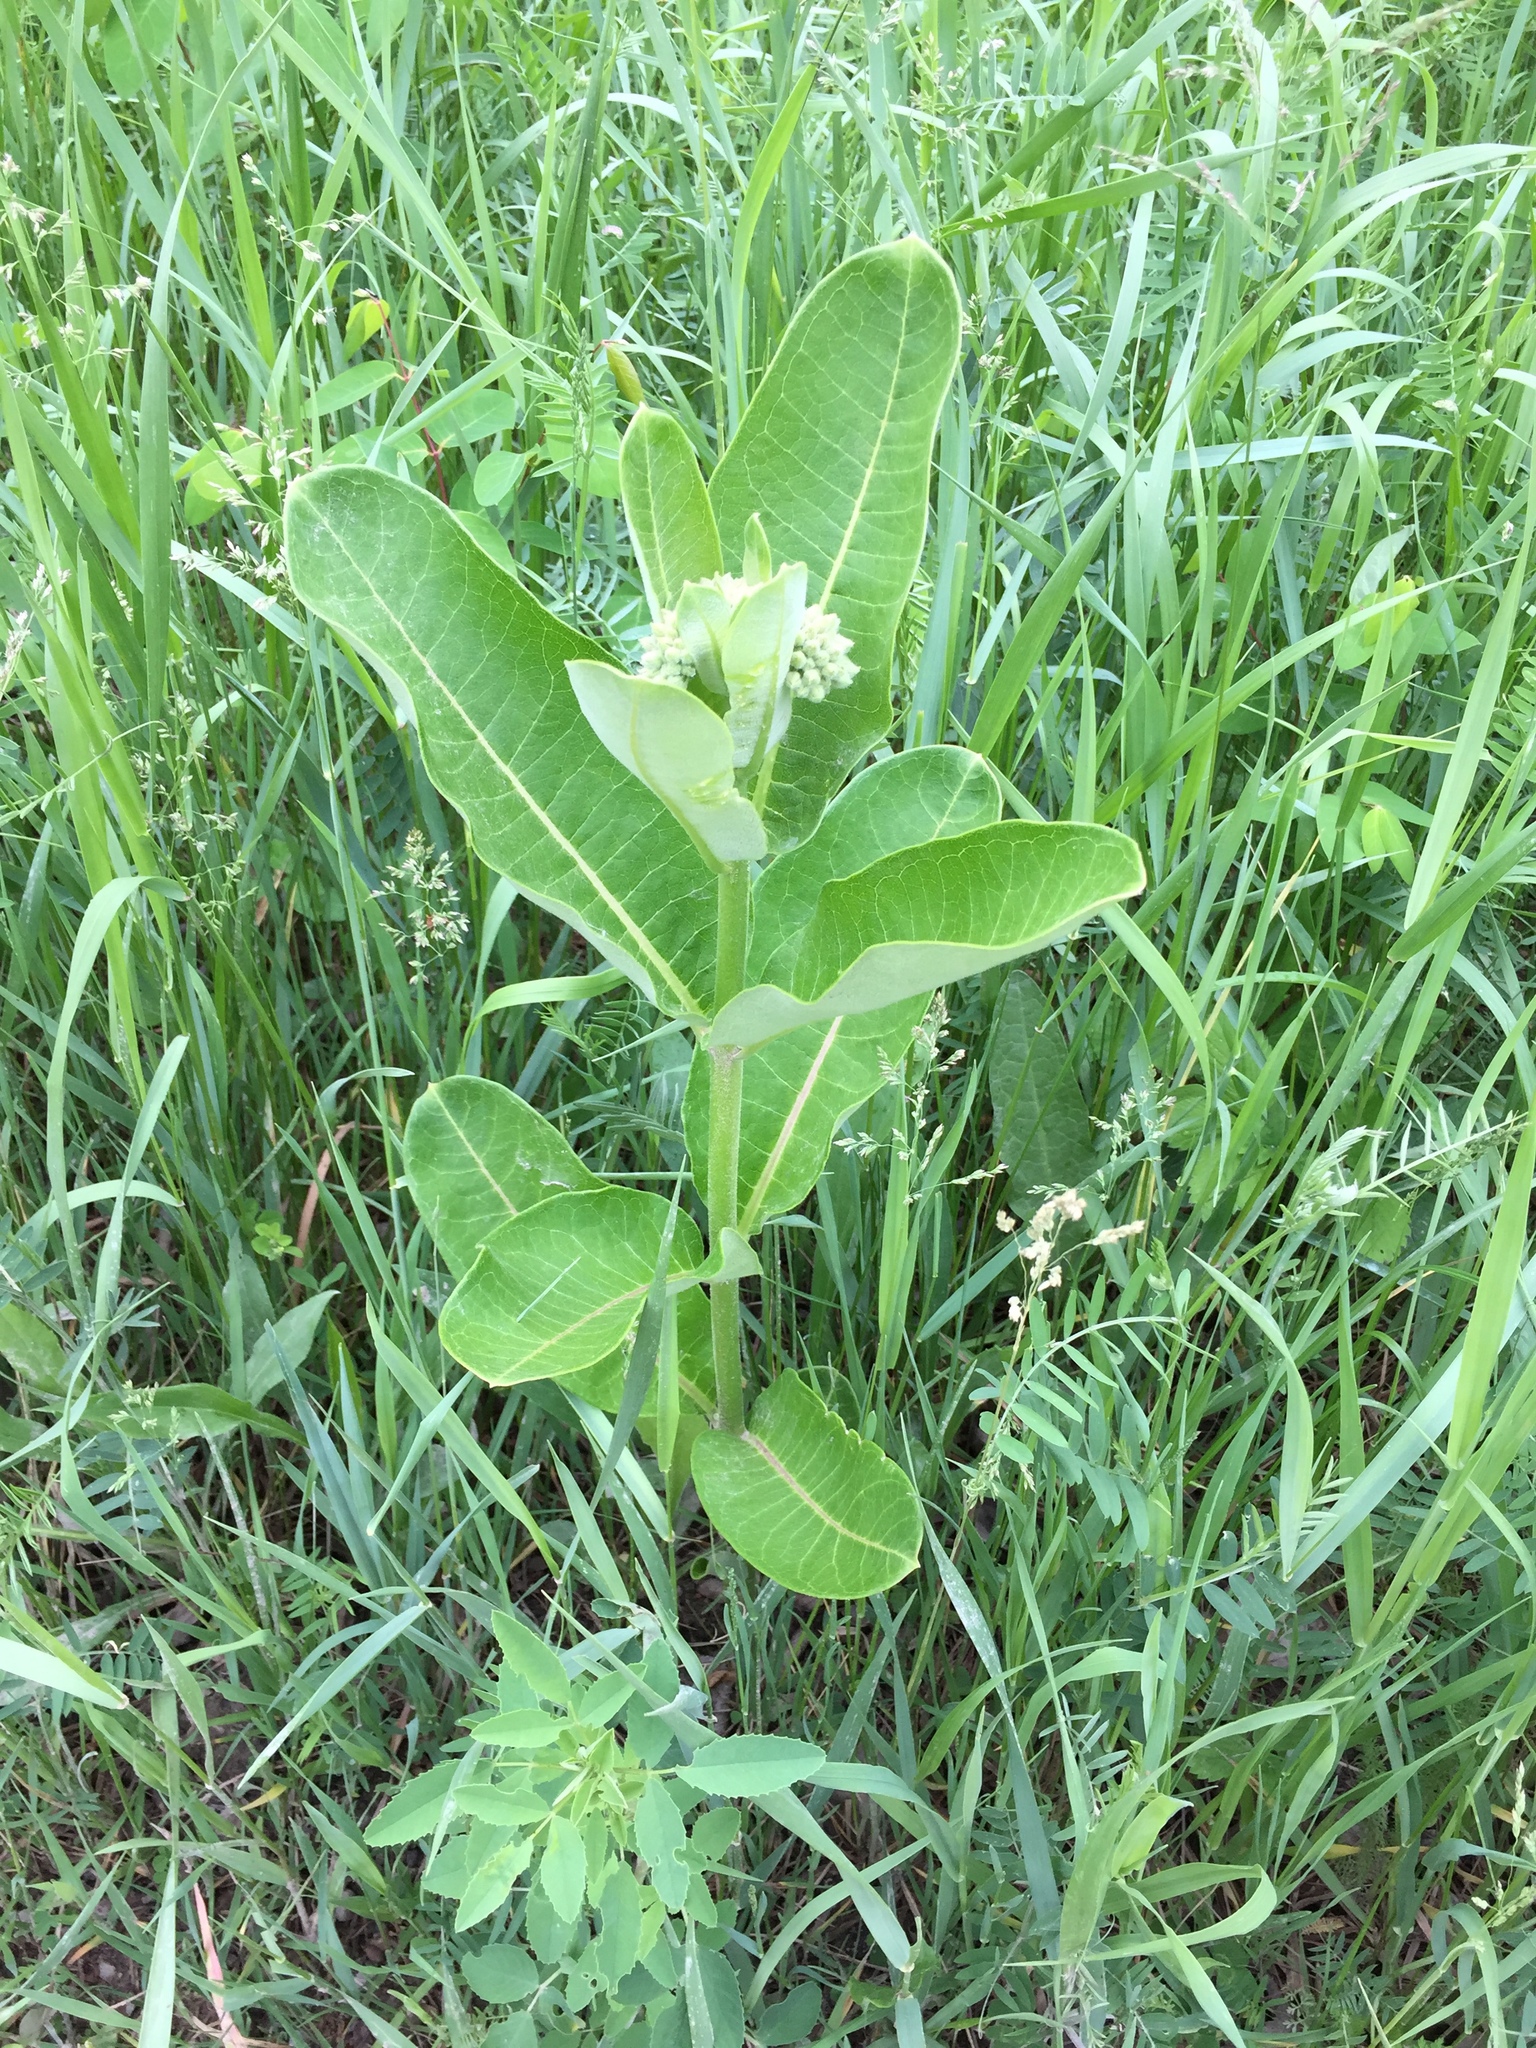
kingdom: Plantae
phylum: Tracheophyta
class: Magnoliopsida
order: Gentianales
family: Apocynaceae
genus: Asclepias
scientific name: Asclepias syriaca
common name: Common milkweed
